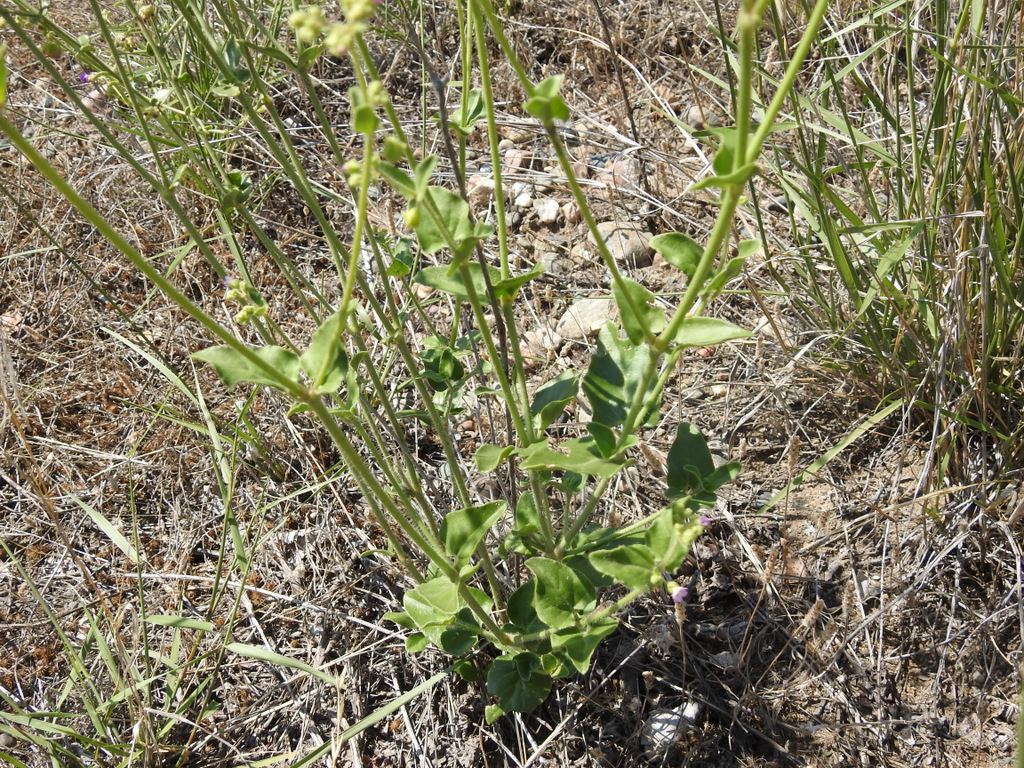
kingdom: Plantae
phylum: Tracheophyta
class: Magnoliopsida
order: Caryophyllales
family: Nyctaginaceae
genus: Mirabilis
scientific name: Mirabilis ovata
